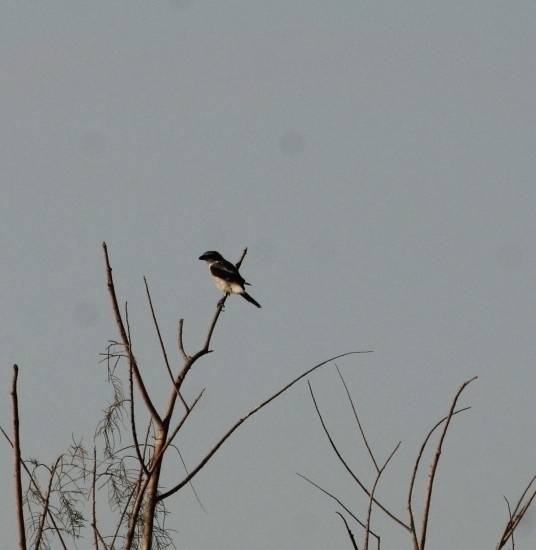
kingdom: Animalia
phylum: Chordata
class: Aves
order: Passeriformes
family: Laniidae
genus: Lanius
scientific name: Lanius ludovicianus
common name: Loggerhead shrike
